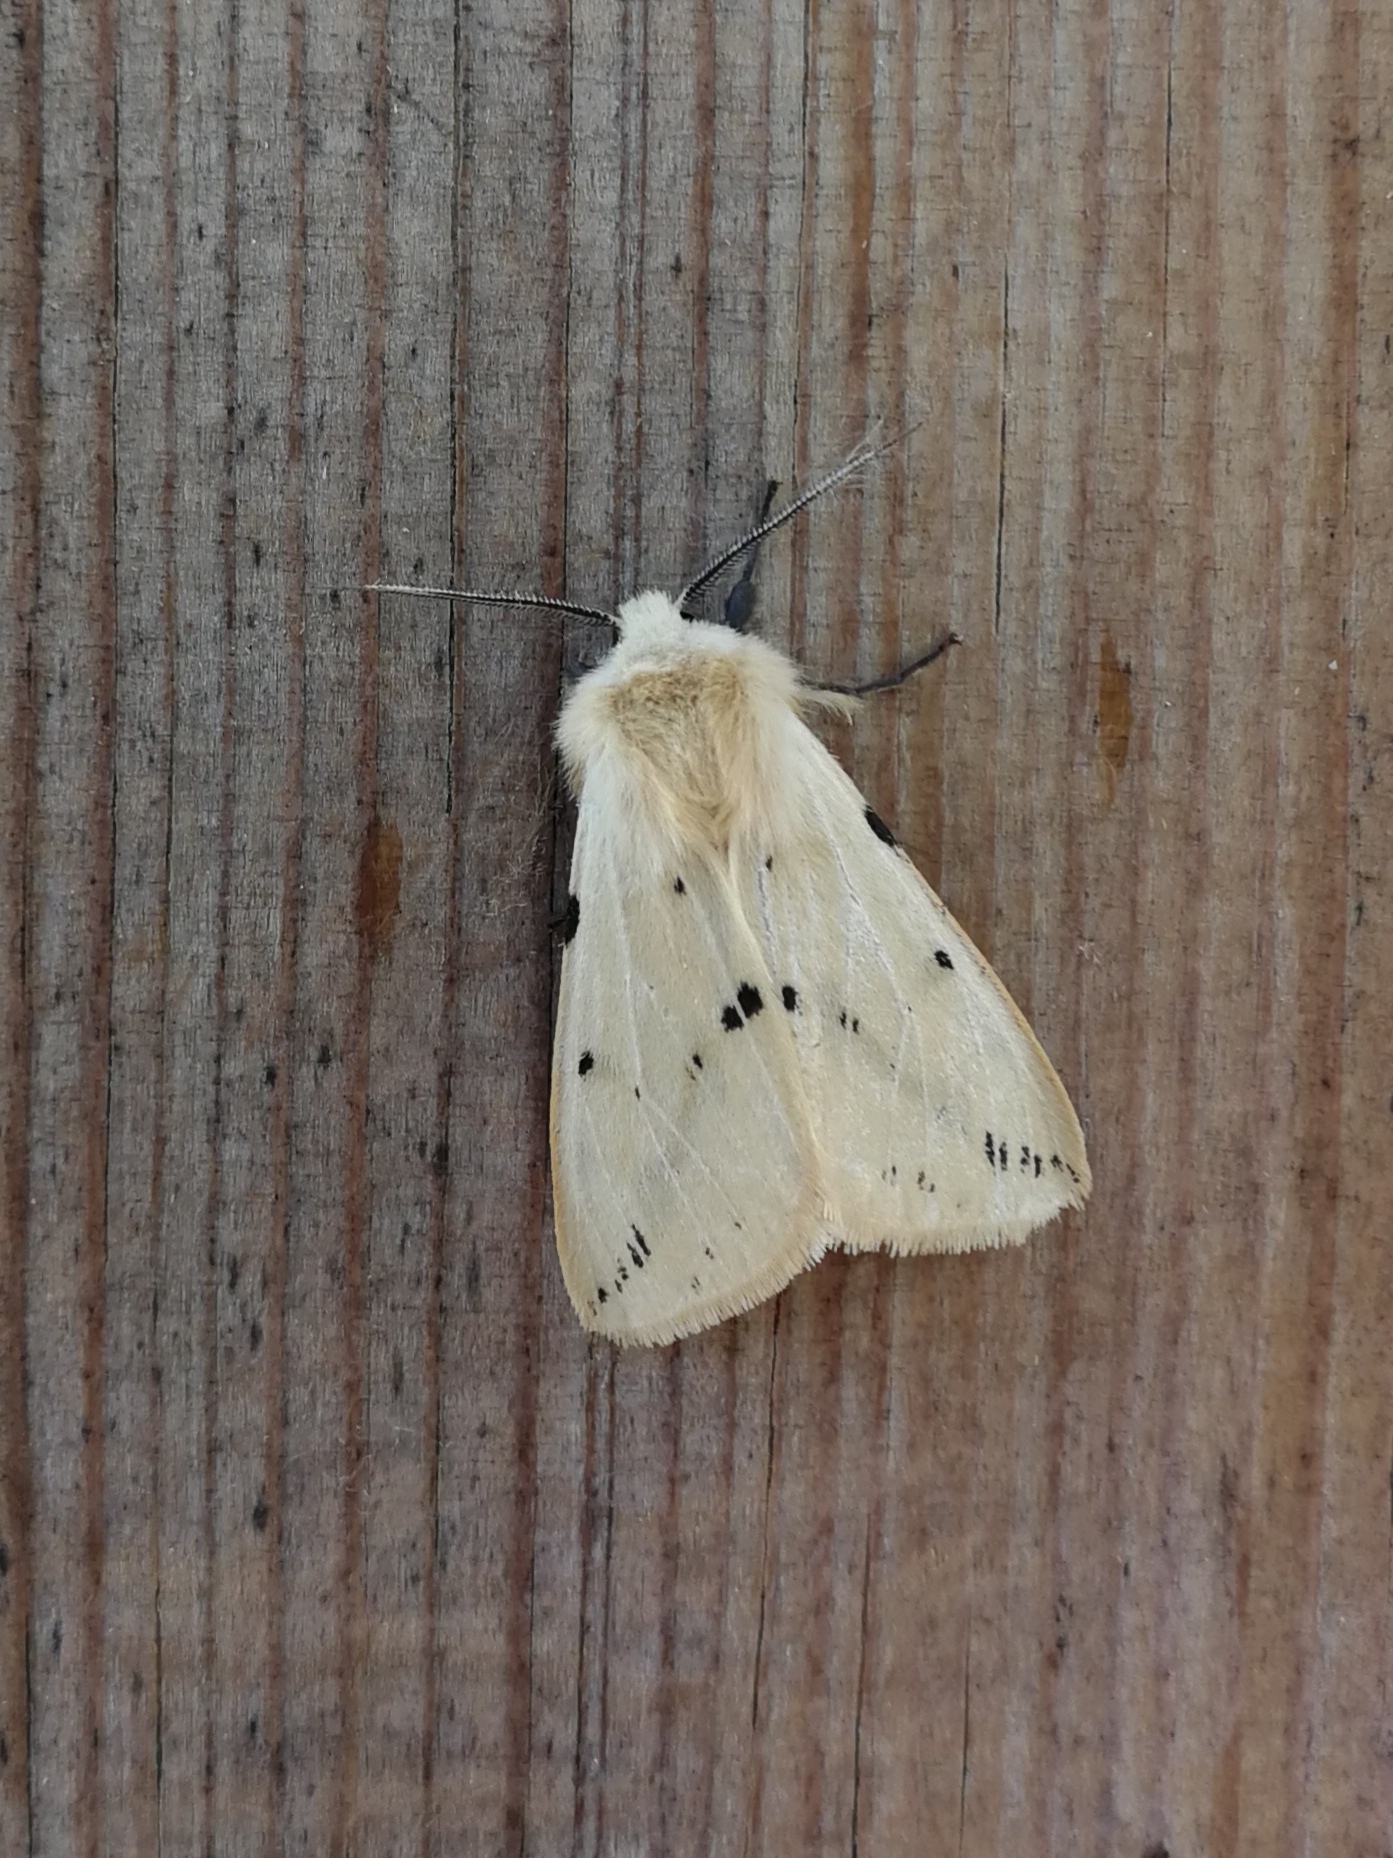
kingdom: Animalia
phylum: Arthropoda
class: Insecta
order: Lepidoptera
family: Erebidae
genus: Spilarctia
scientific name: Spilarctia lutea
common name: Buff ermine
